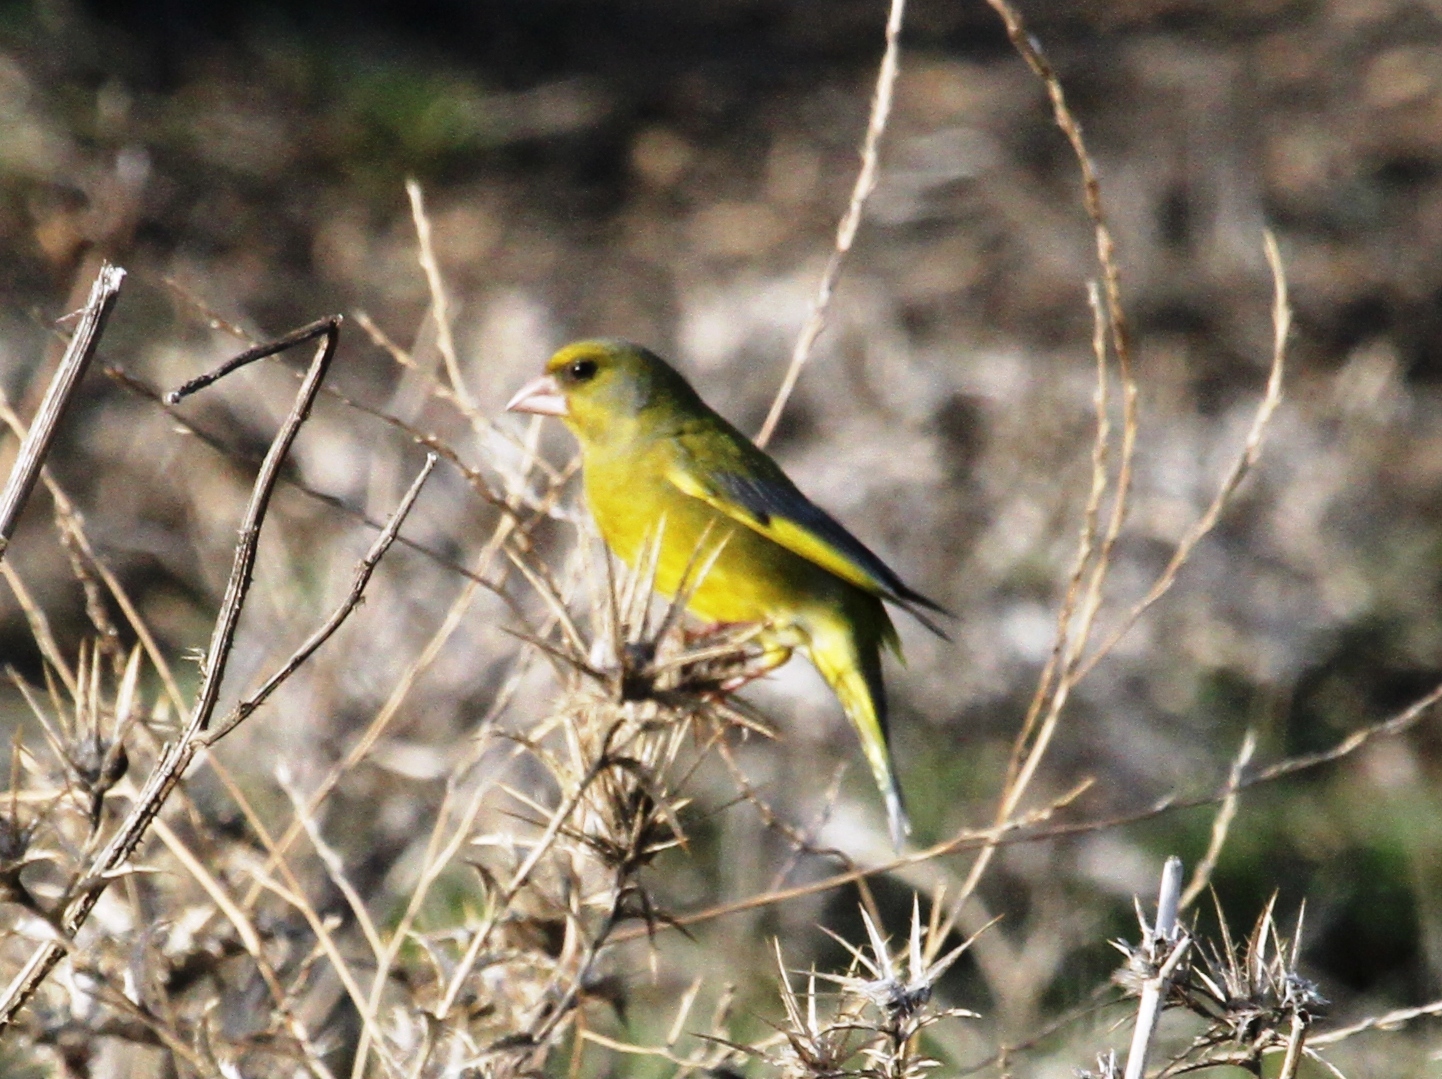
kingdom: Plantae
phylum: Tracheophyta
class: Liliopsida
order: Poales
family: Poaceae
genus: Chloris
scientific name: Chloris chloris
